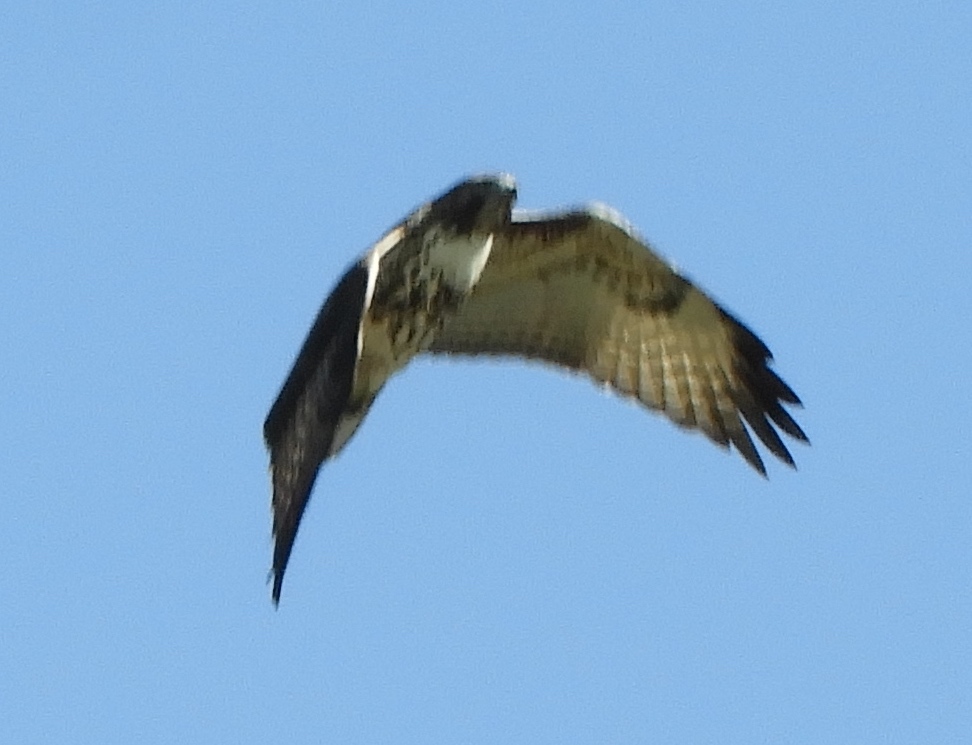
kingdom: Animalia
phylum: Chordata
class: Aves
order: Accipitriformes
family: Accipitridae
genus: Buteo
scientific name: Buteo jamaicensis
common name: Red-tailed hawk
